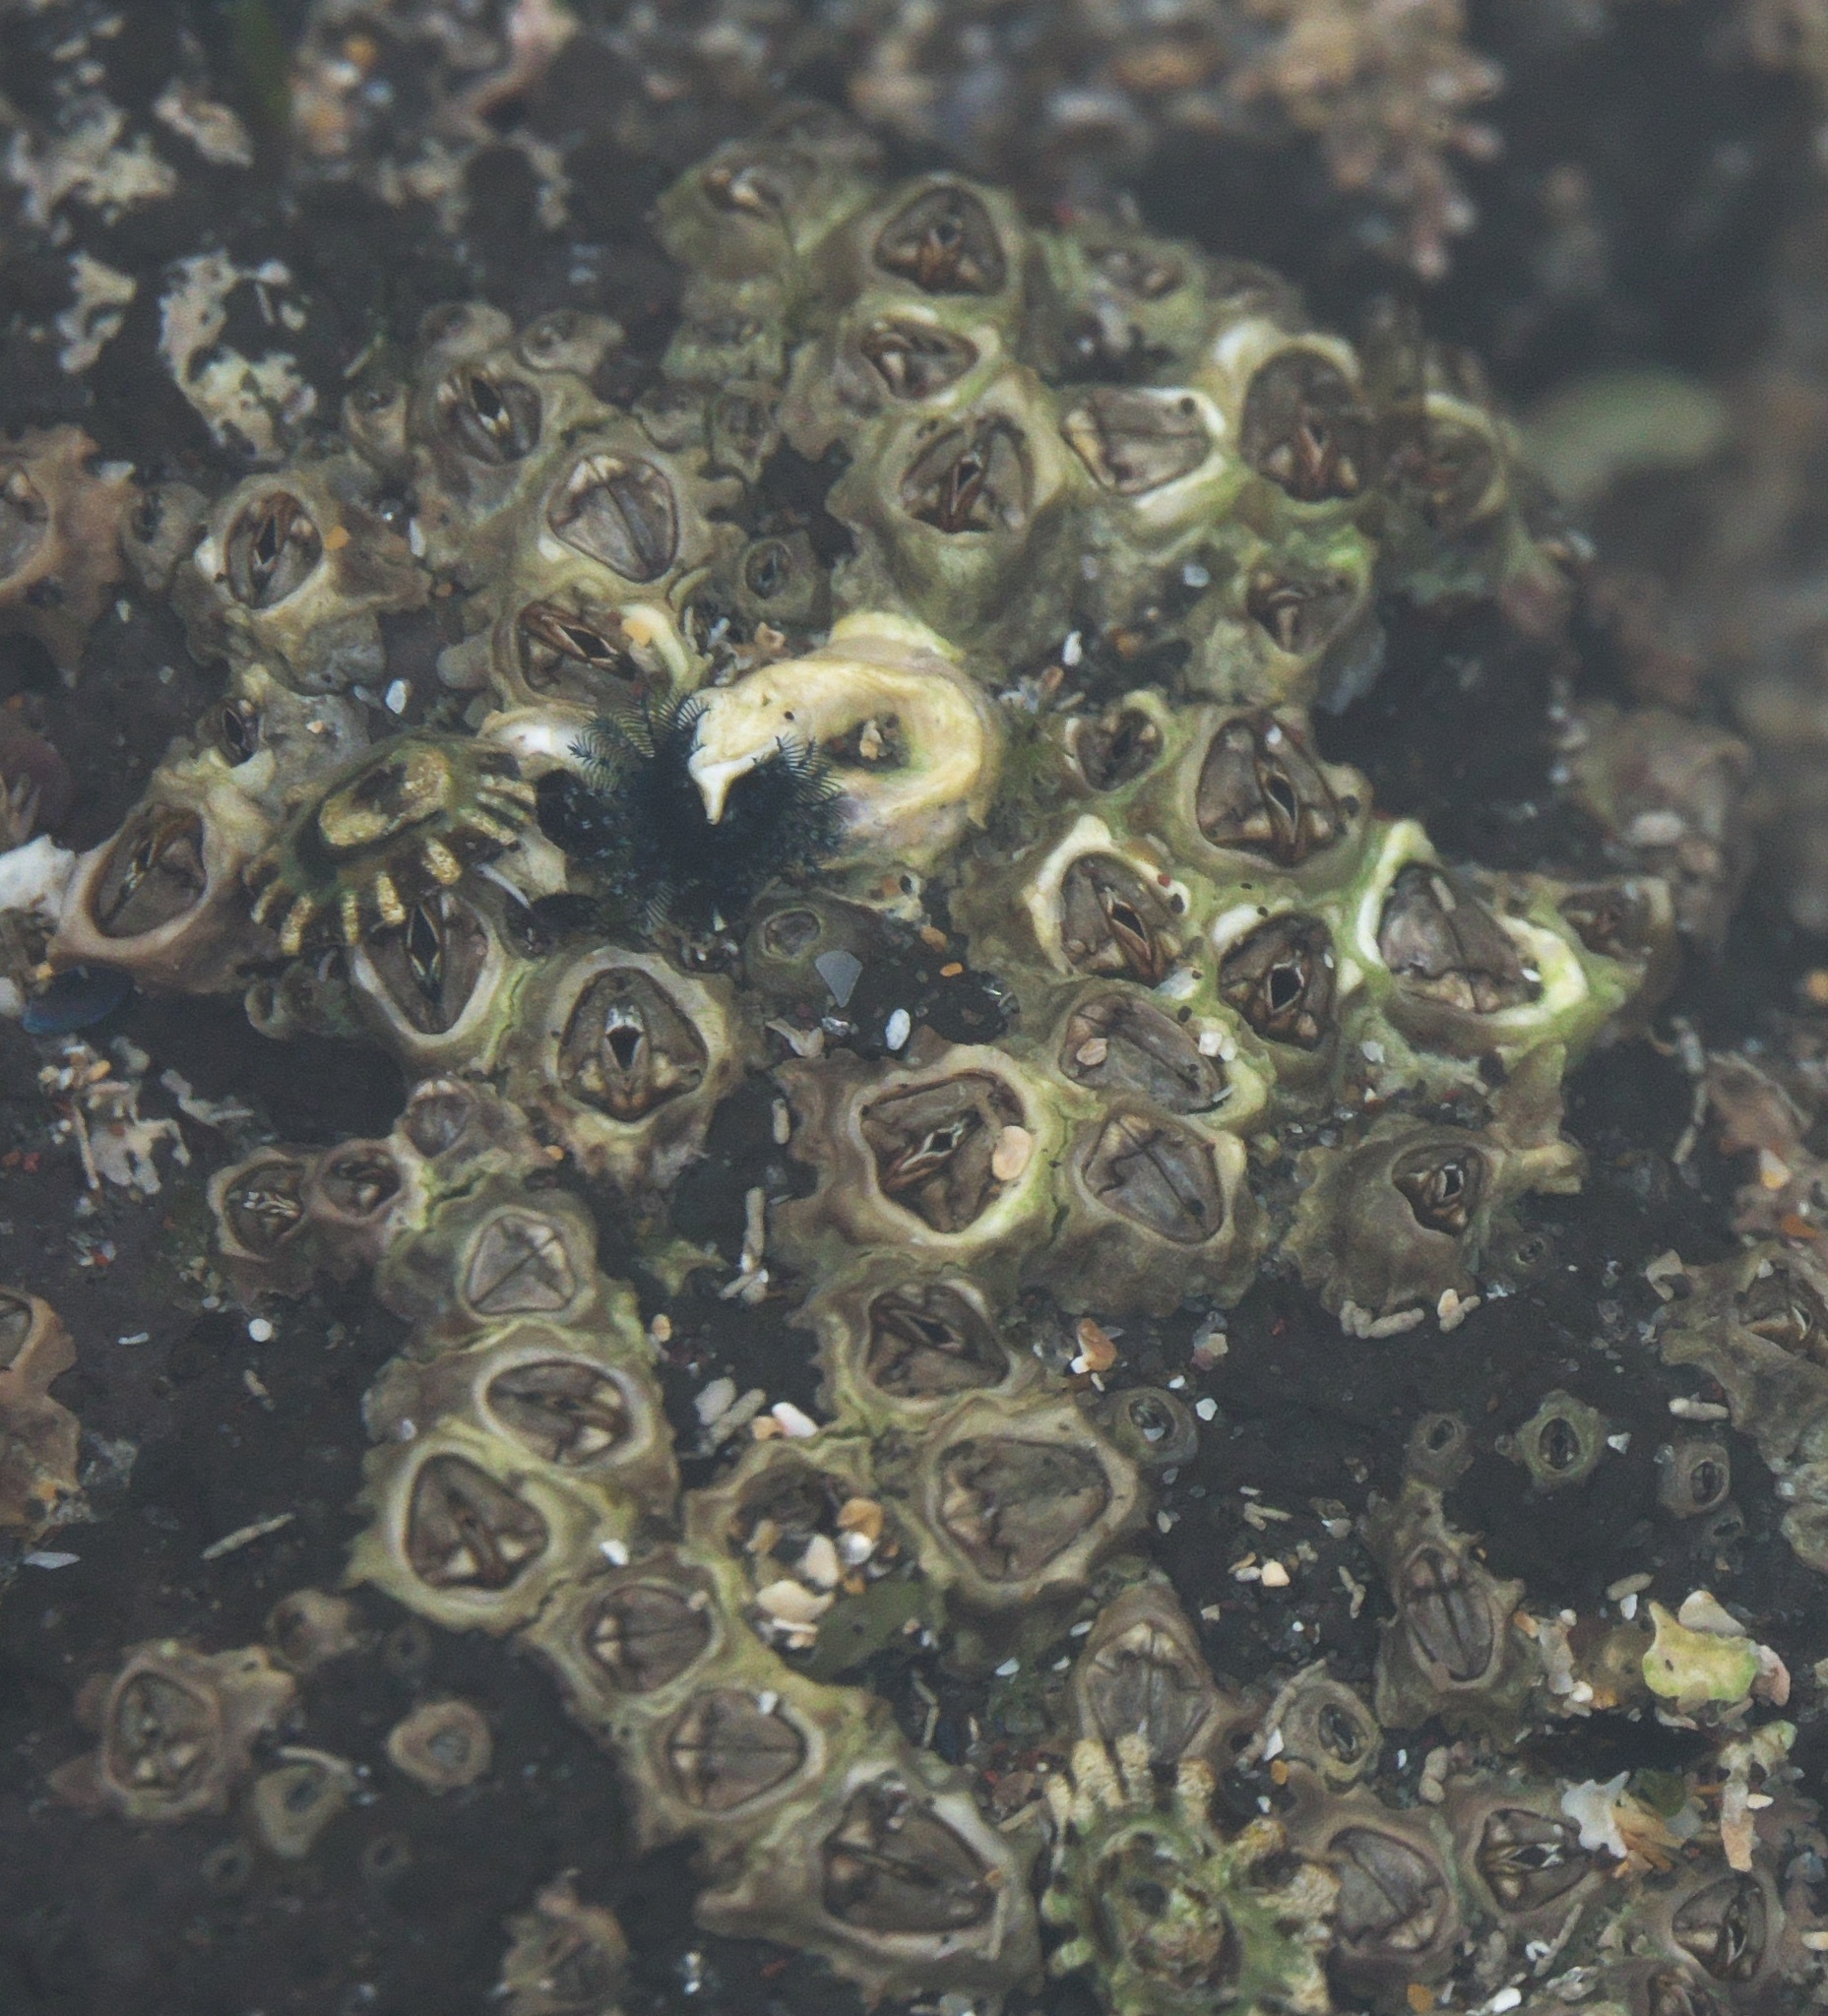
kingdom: Animalia
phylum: Arthropoda
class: Maxillopoda
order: Sessilia
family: Chthamalidae
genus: Chamaesipho
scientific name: Chamaesipho columna
